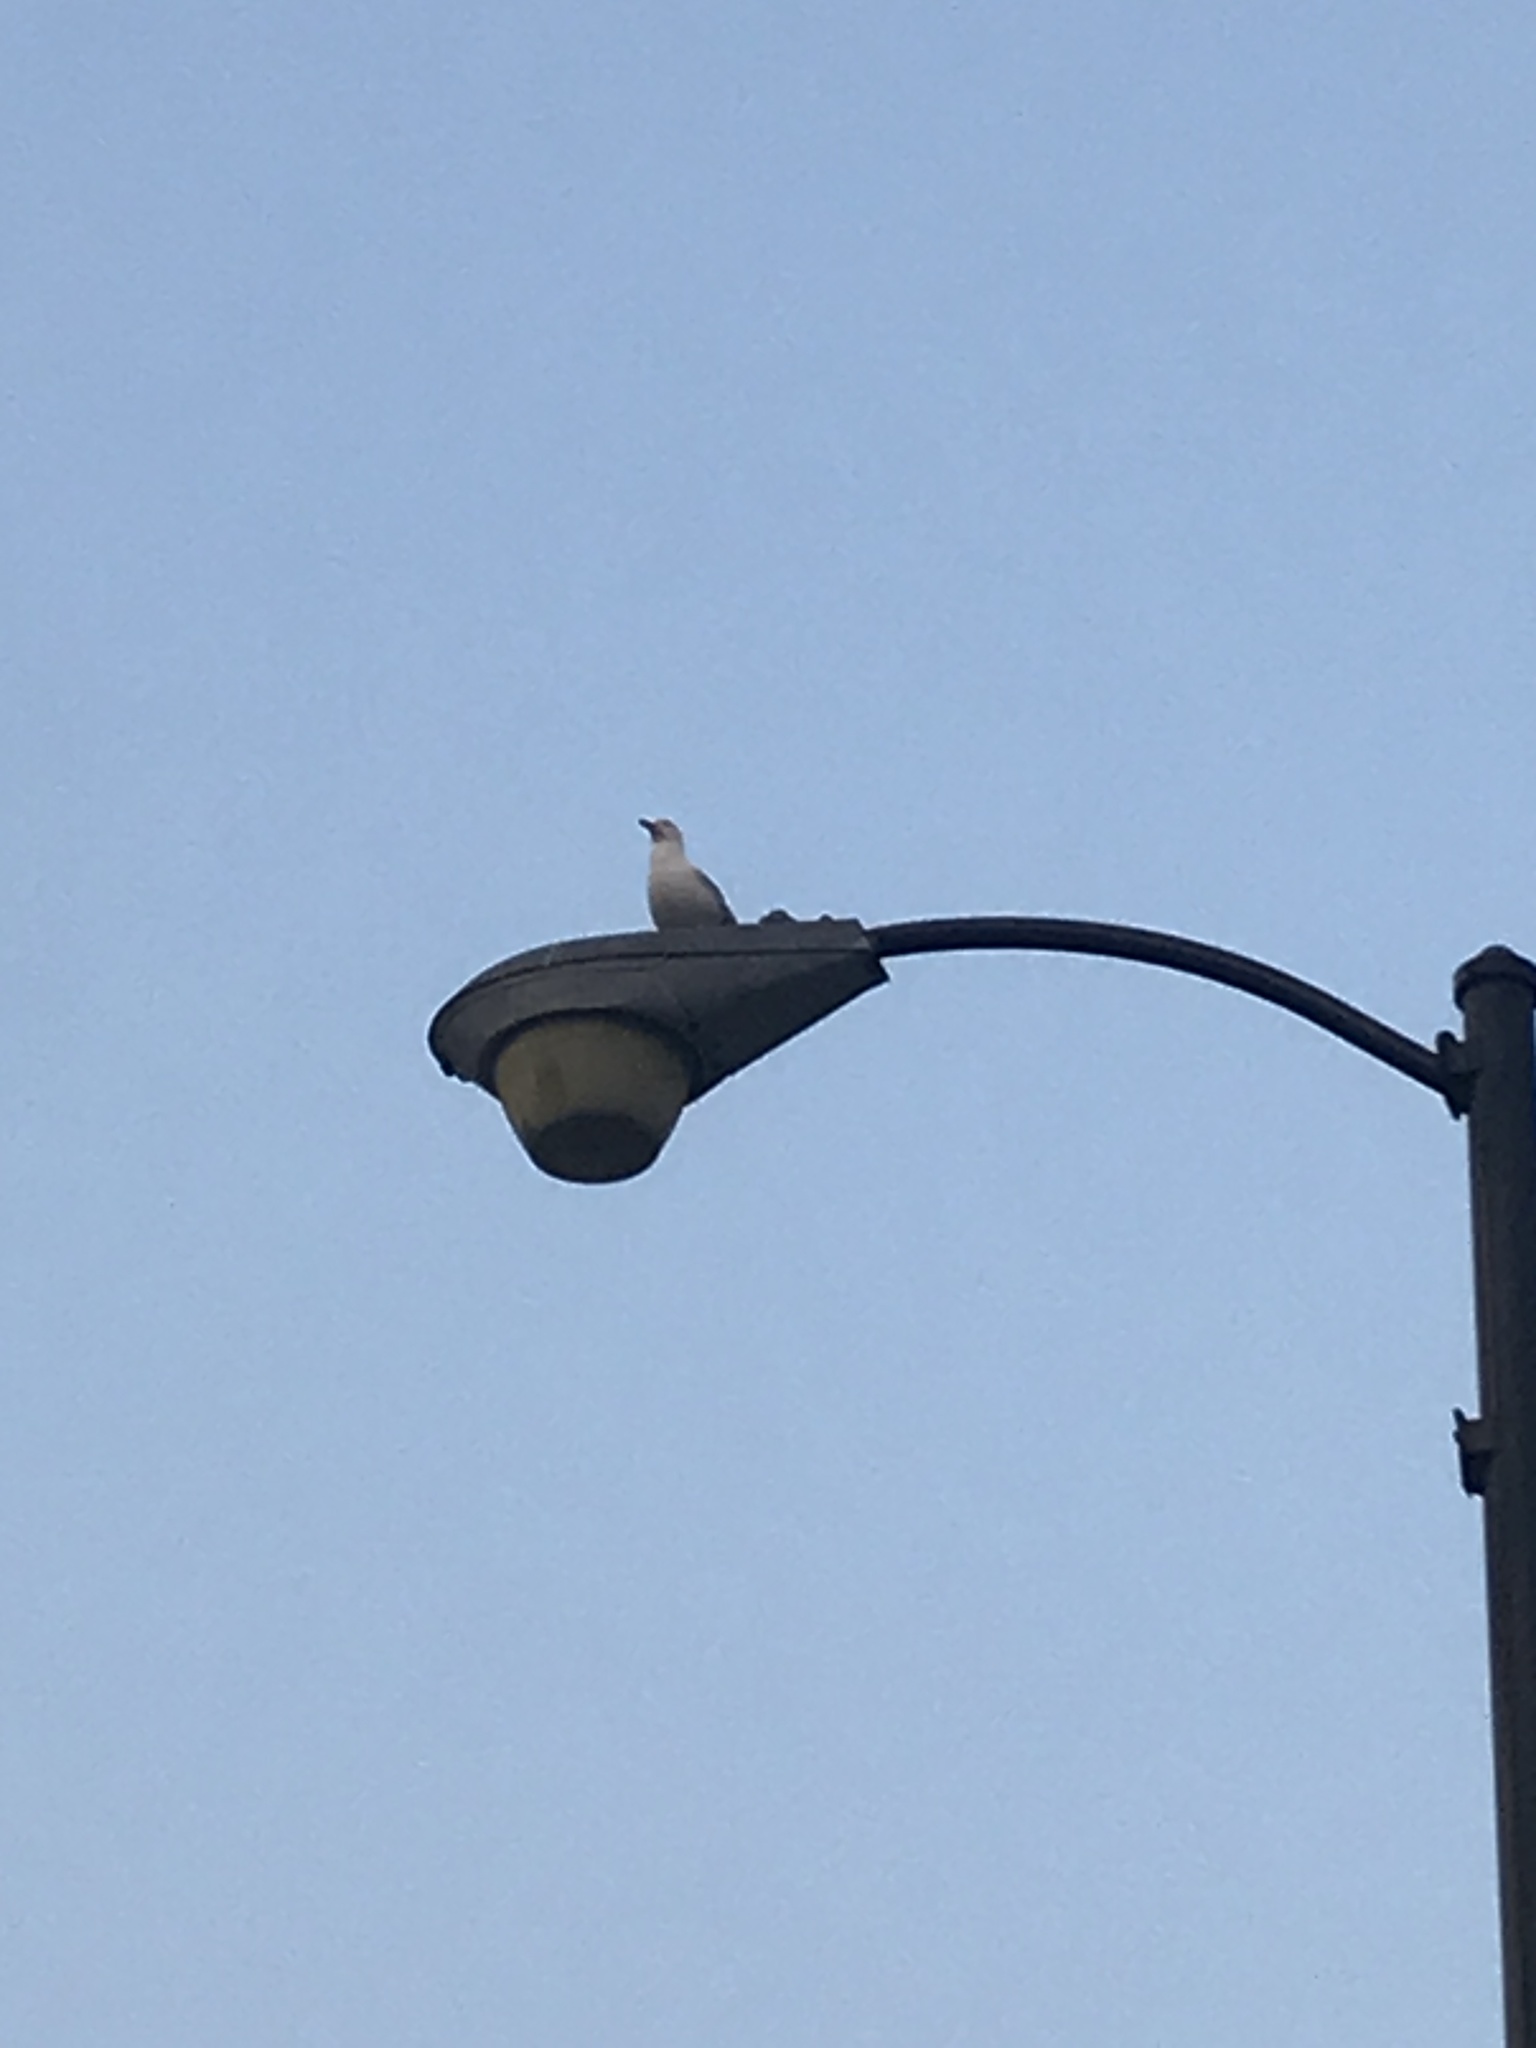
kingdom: Animalia
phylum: Chordata
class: Aves
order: Charadriiformes
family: Laridae
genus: Larus
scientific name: Larus argentatus
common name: Herring gull
